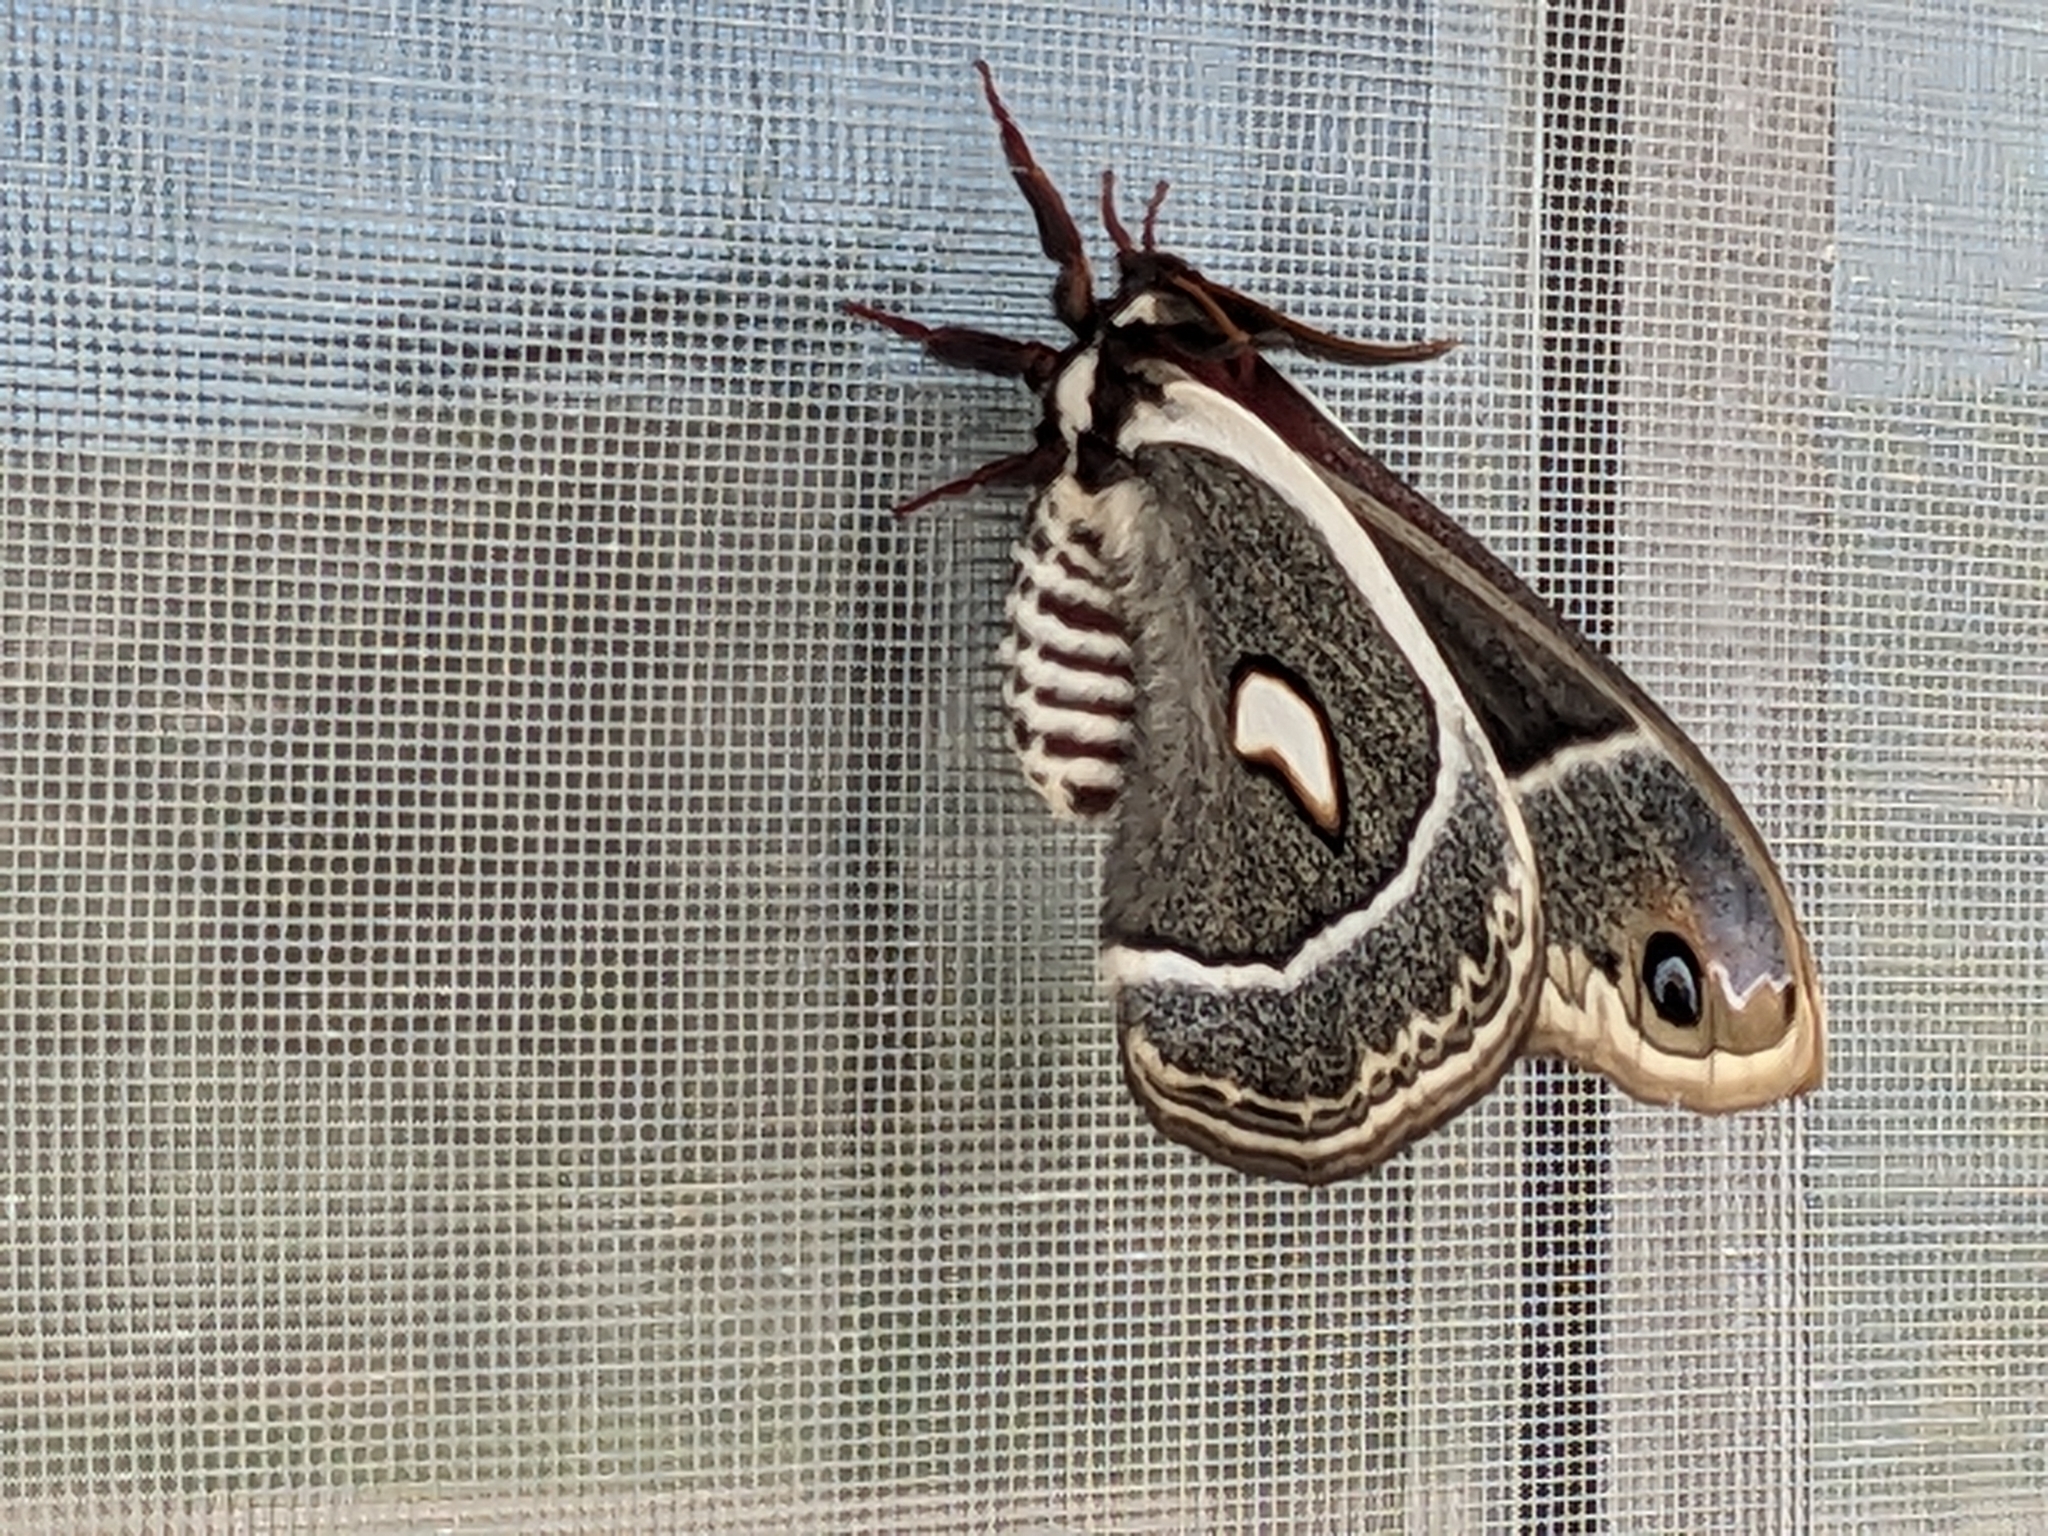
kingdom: Animalia
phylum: Arthropoda
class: Insecta
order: Lepidoptera
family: Saturniidae
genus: Hyalophora
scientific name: Hyalophora gloveri
